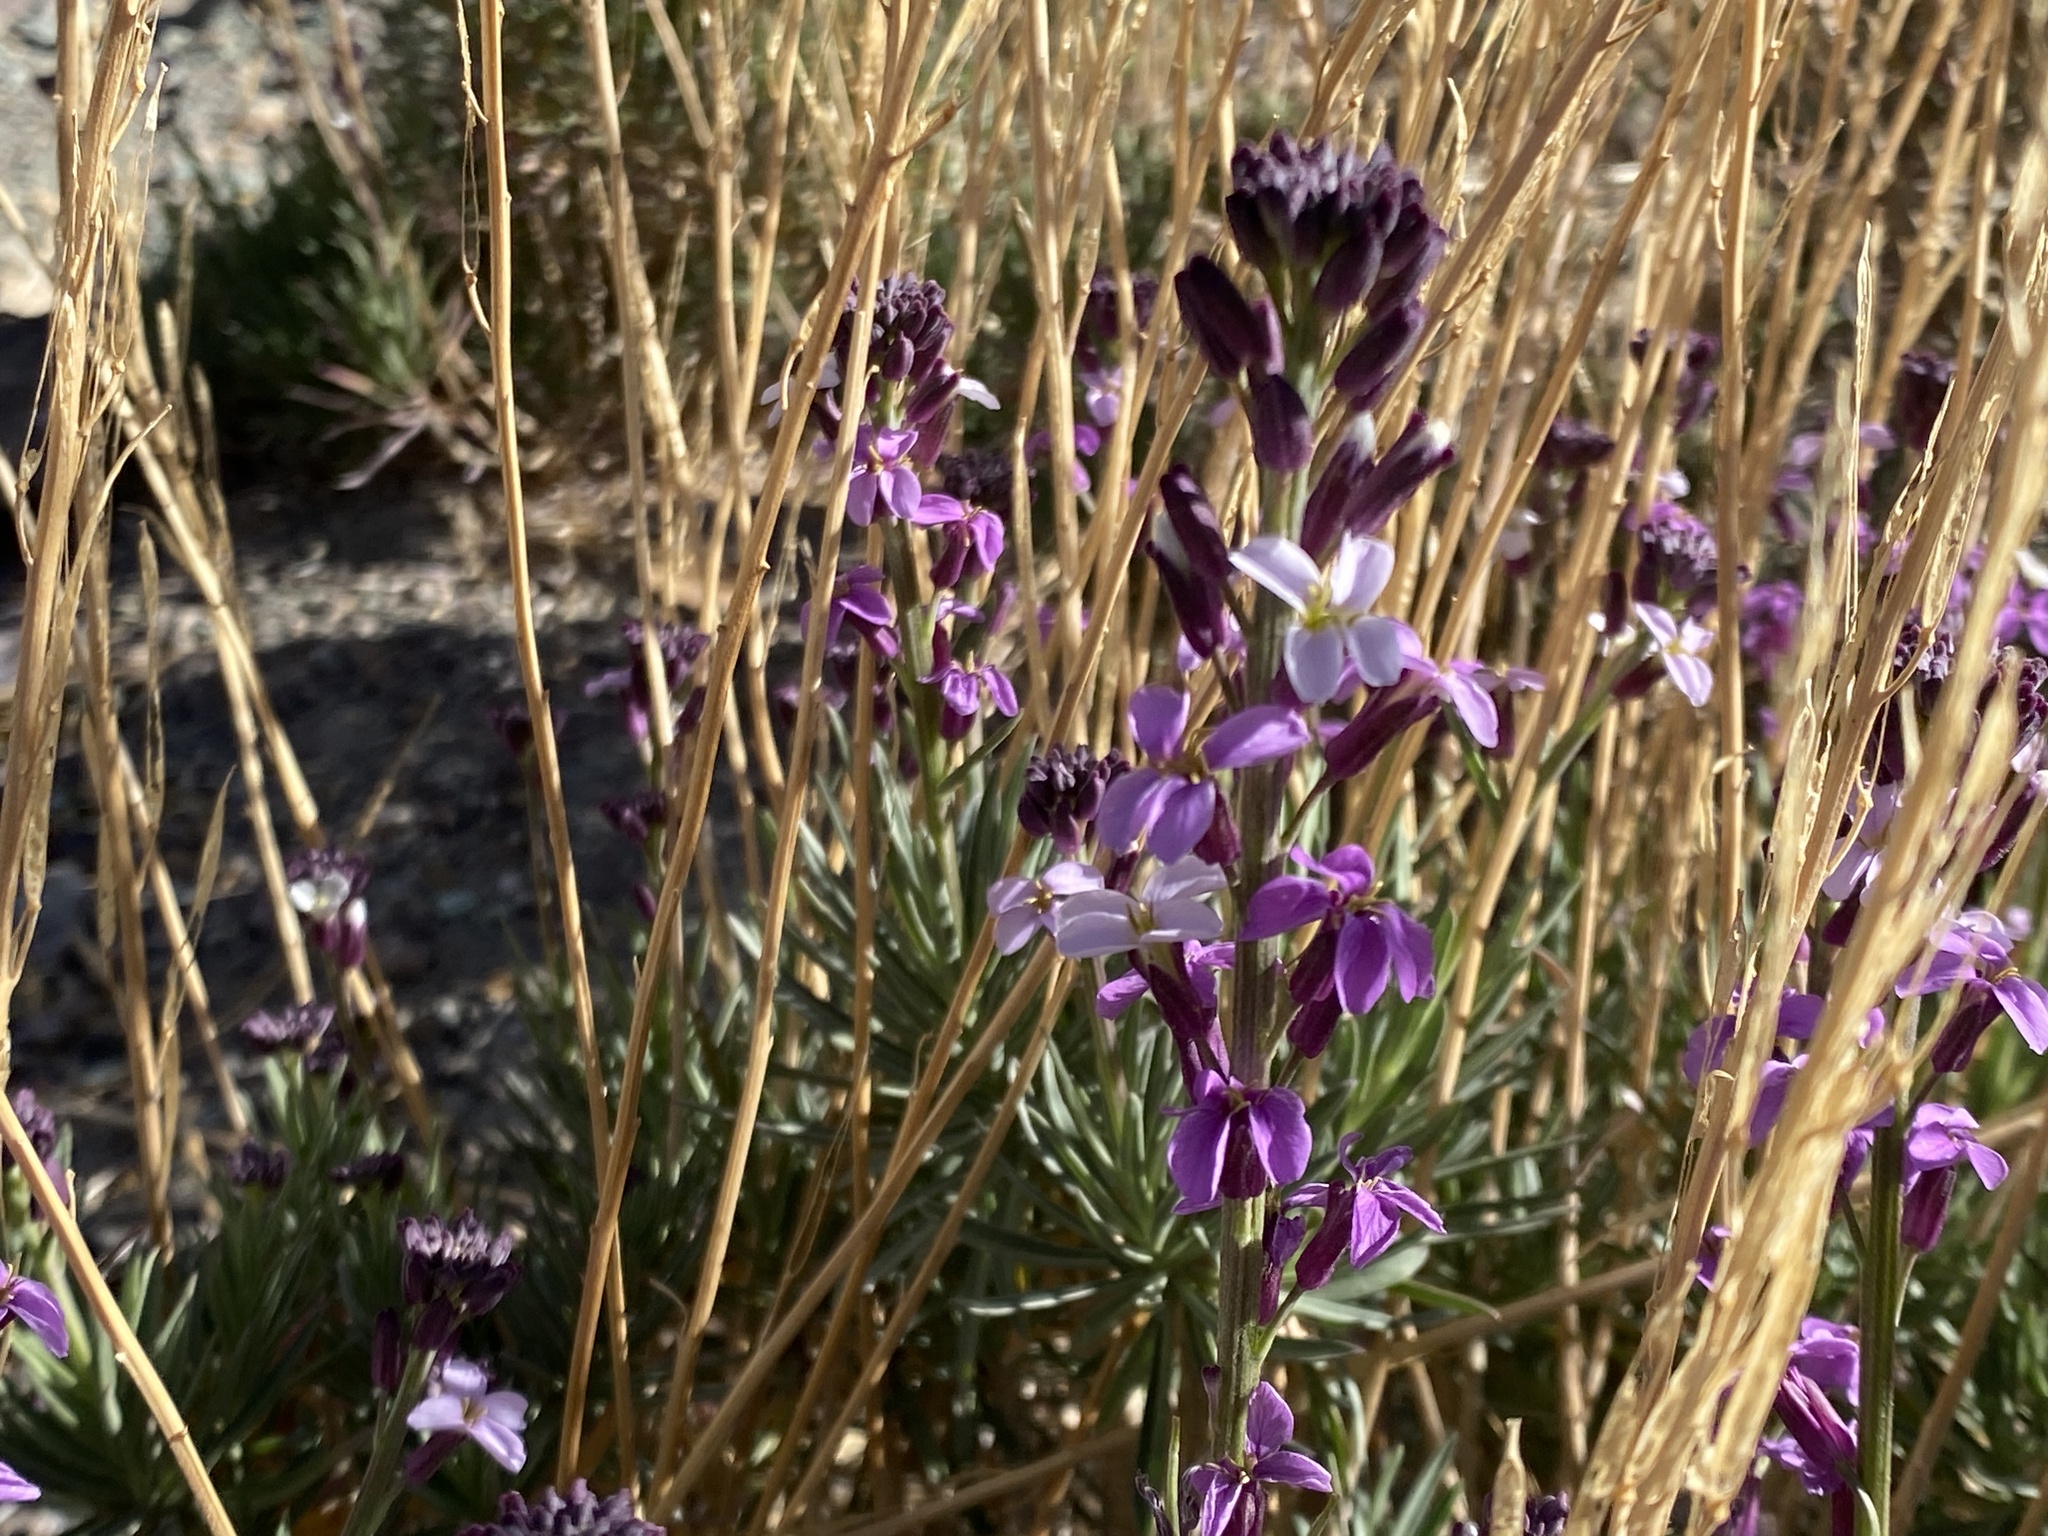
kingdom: Plantae
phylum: Tracheophyta
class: Magnoliopsida
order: Brassicales
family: Brassicaceae
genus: Erysimum
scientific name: Erysimum scoparium
